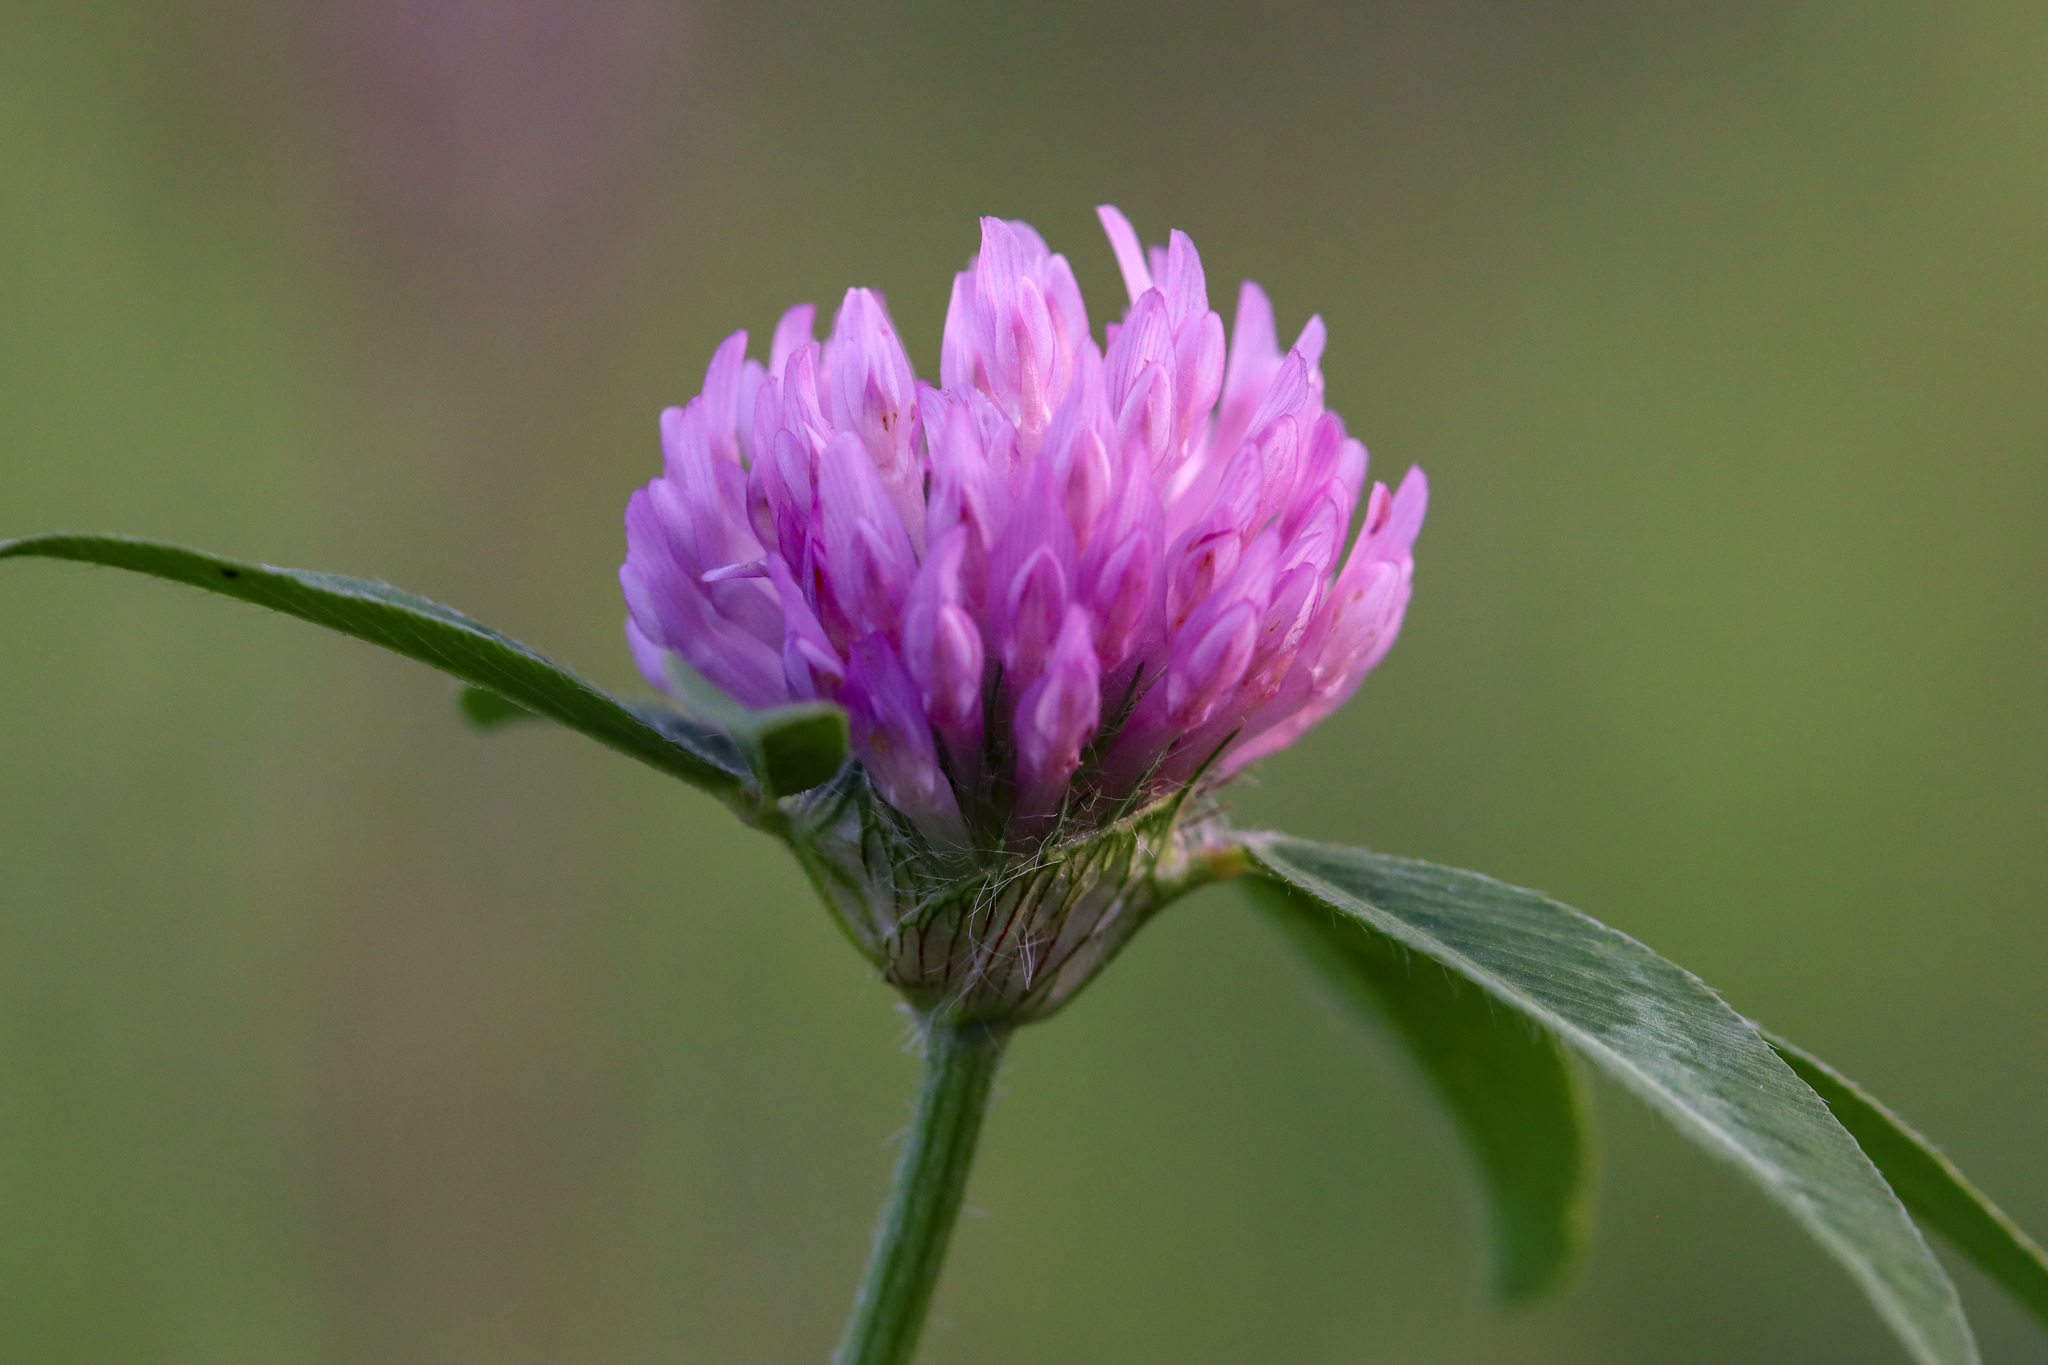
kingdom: Plantae
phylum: Tracheophyta
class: Magnoliopsida
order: Fabales
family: Fabaceae
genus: Trifolium
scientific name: Trifolium pratense
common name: Red clover
